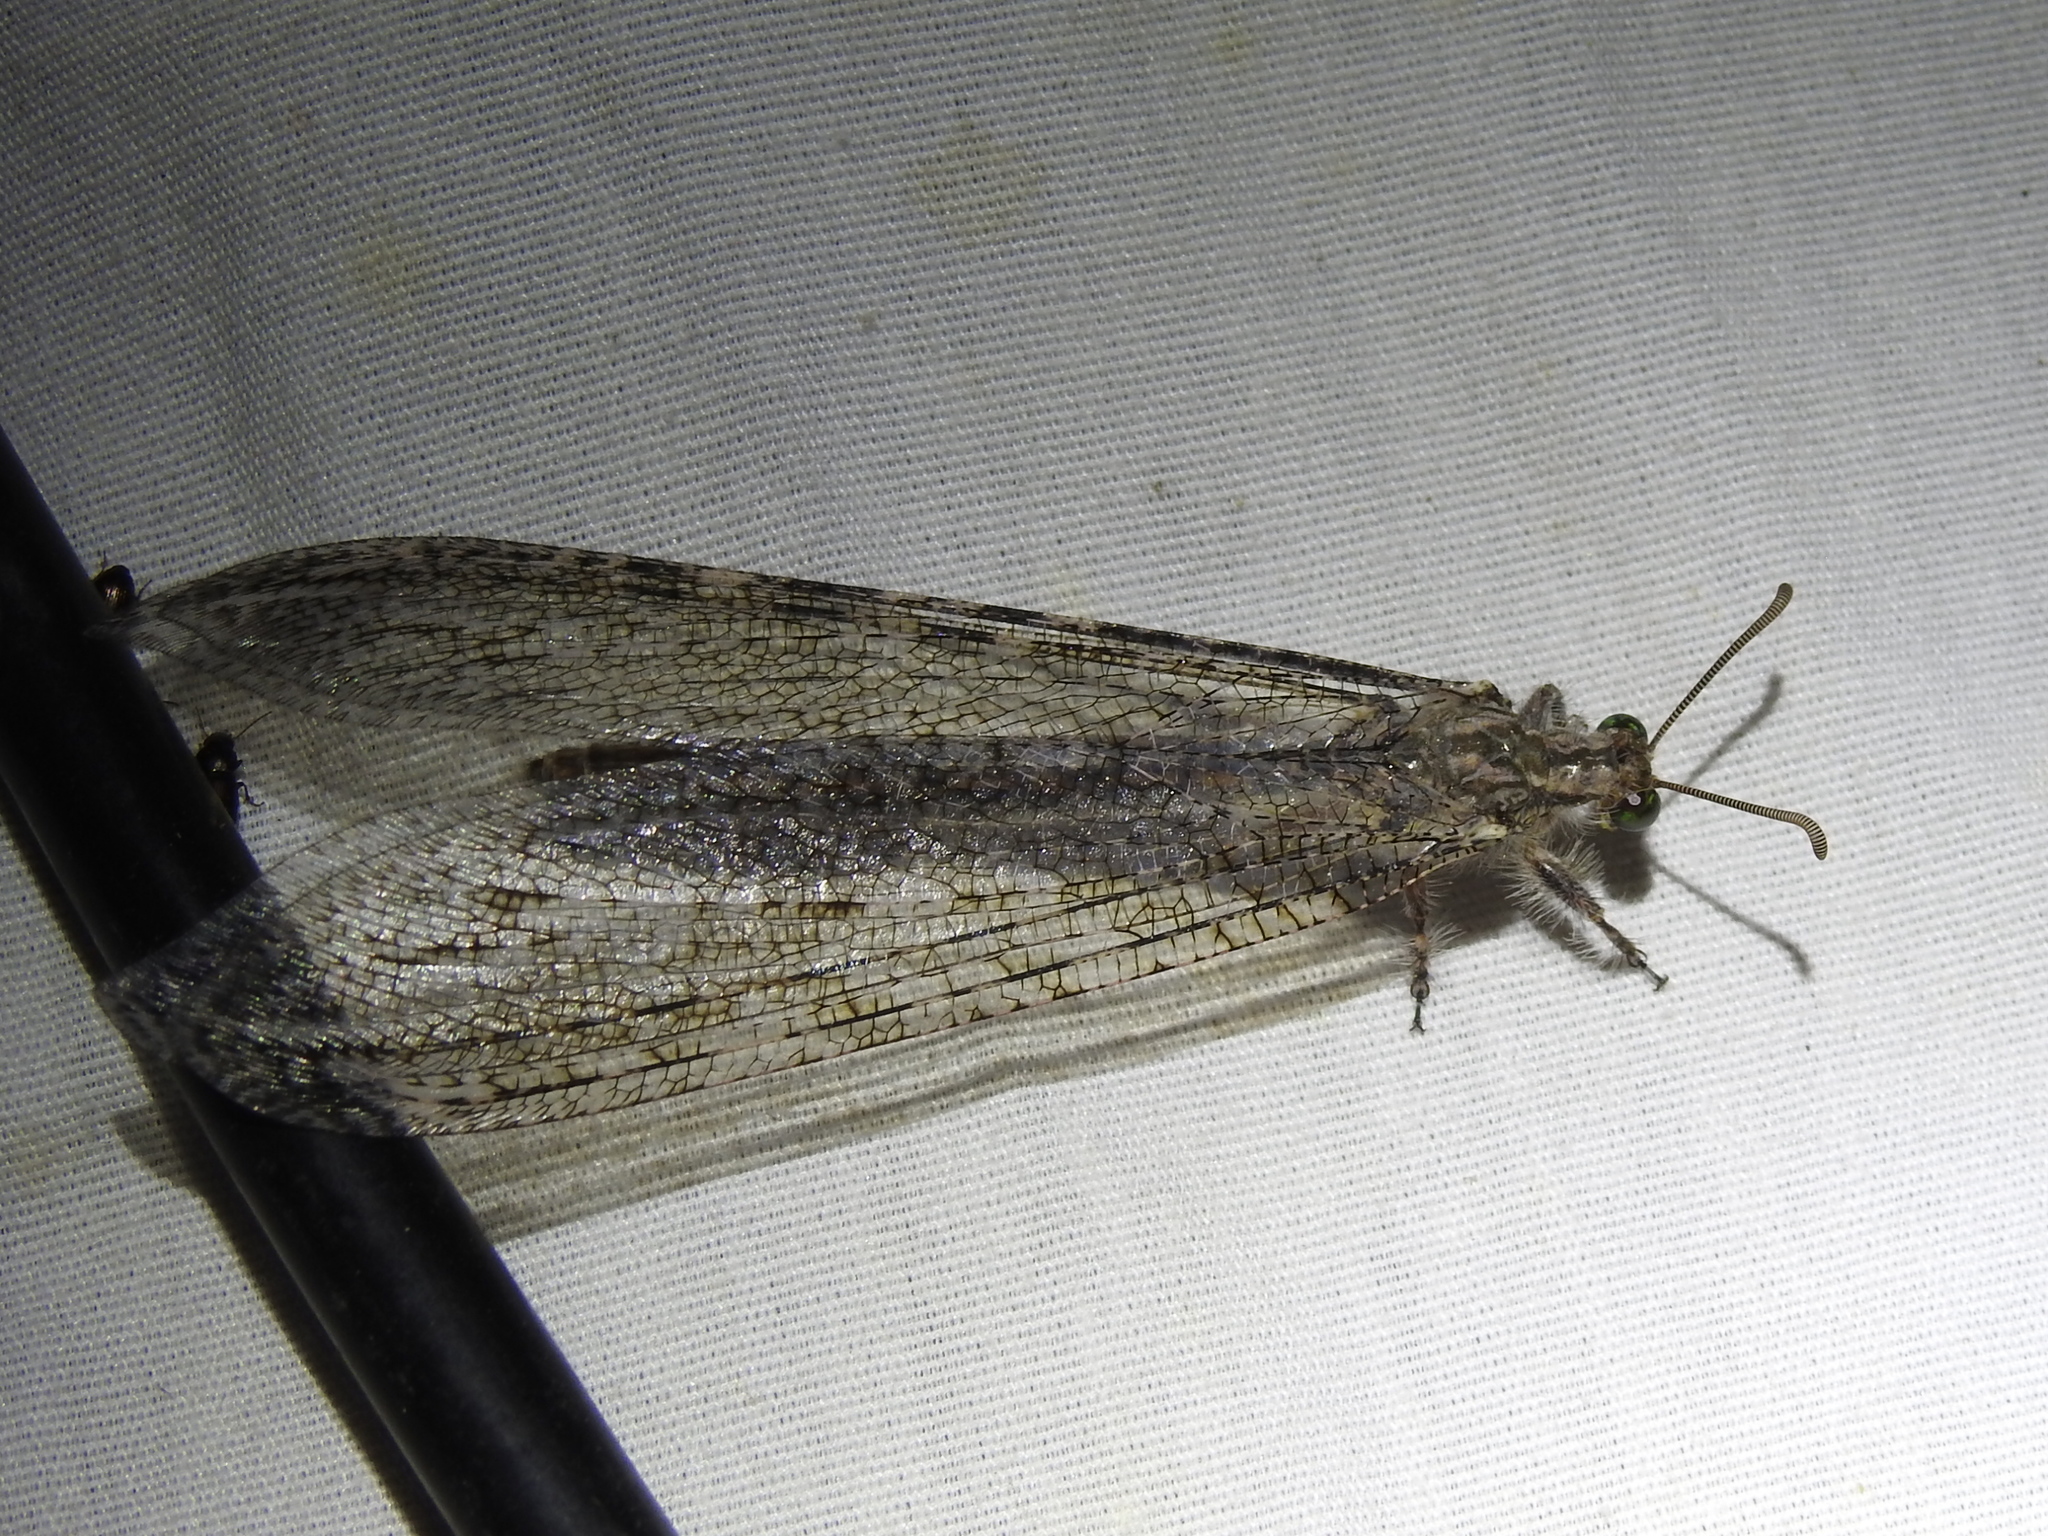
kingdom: Animalia
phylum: Arthropoda
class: Insecta
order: Neuroptera
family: Myrmeleontidae
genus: Vella
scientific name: Vella fallax
